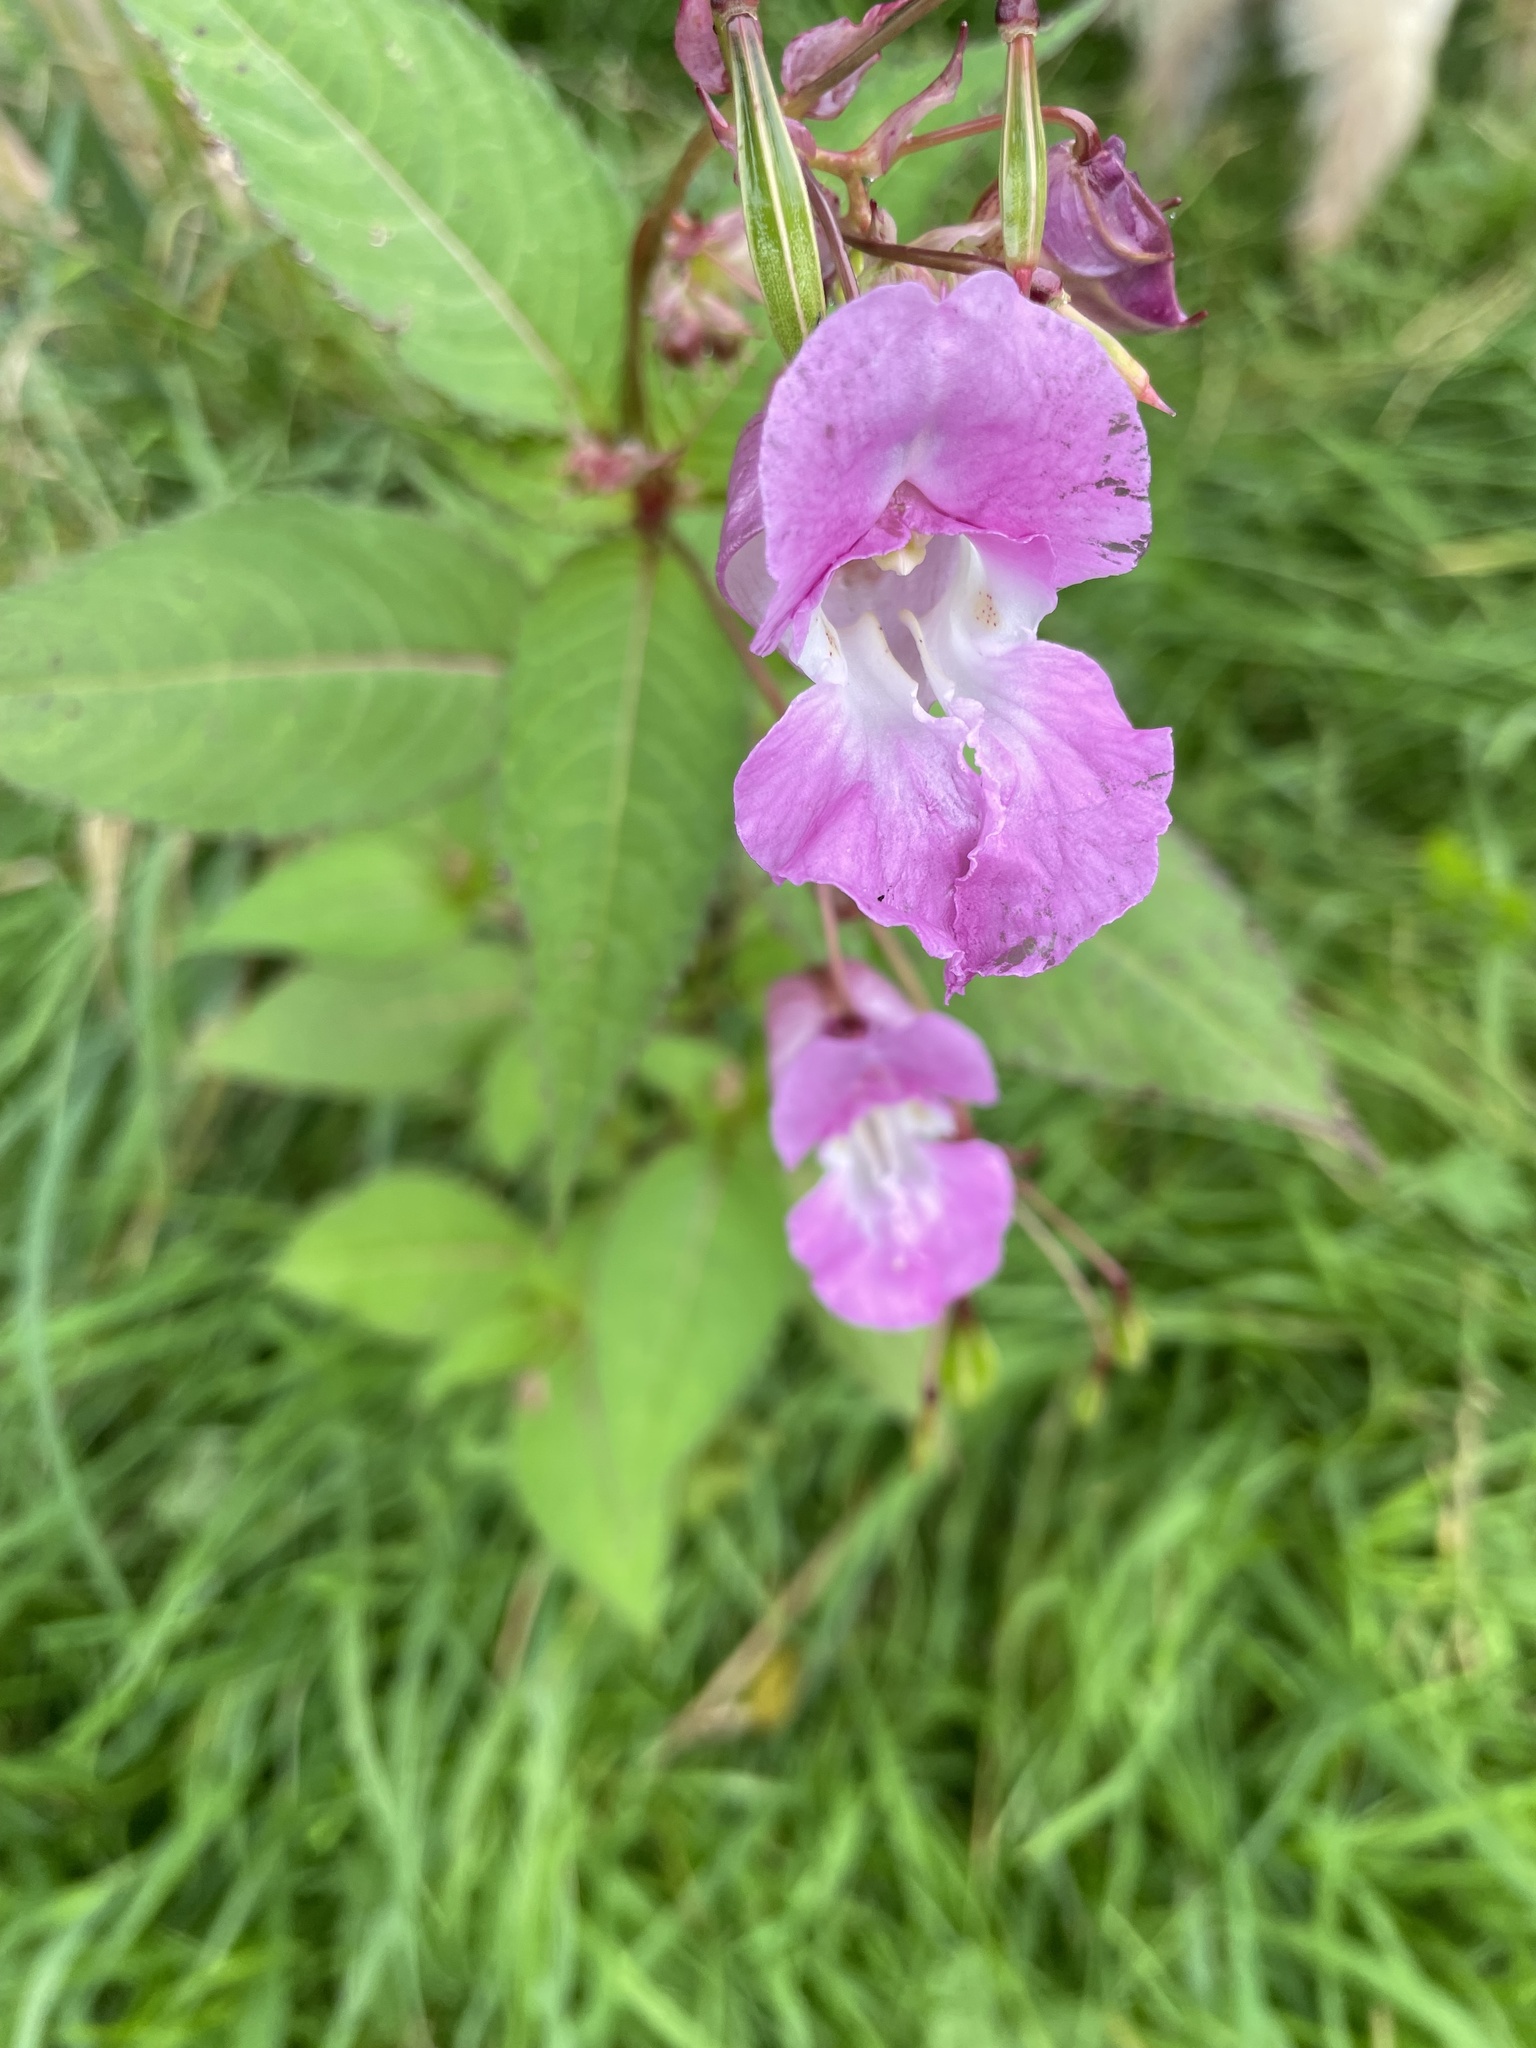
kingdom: Plantae
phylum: Tracheophyta
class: Magnoliopsida
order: Ericales
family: Balsaminaceae
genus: Impatiens
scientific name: Impatiens glandulifera
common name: Himalayan balsam
